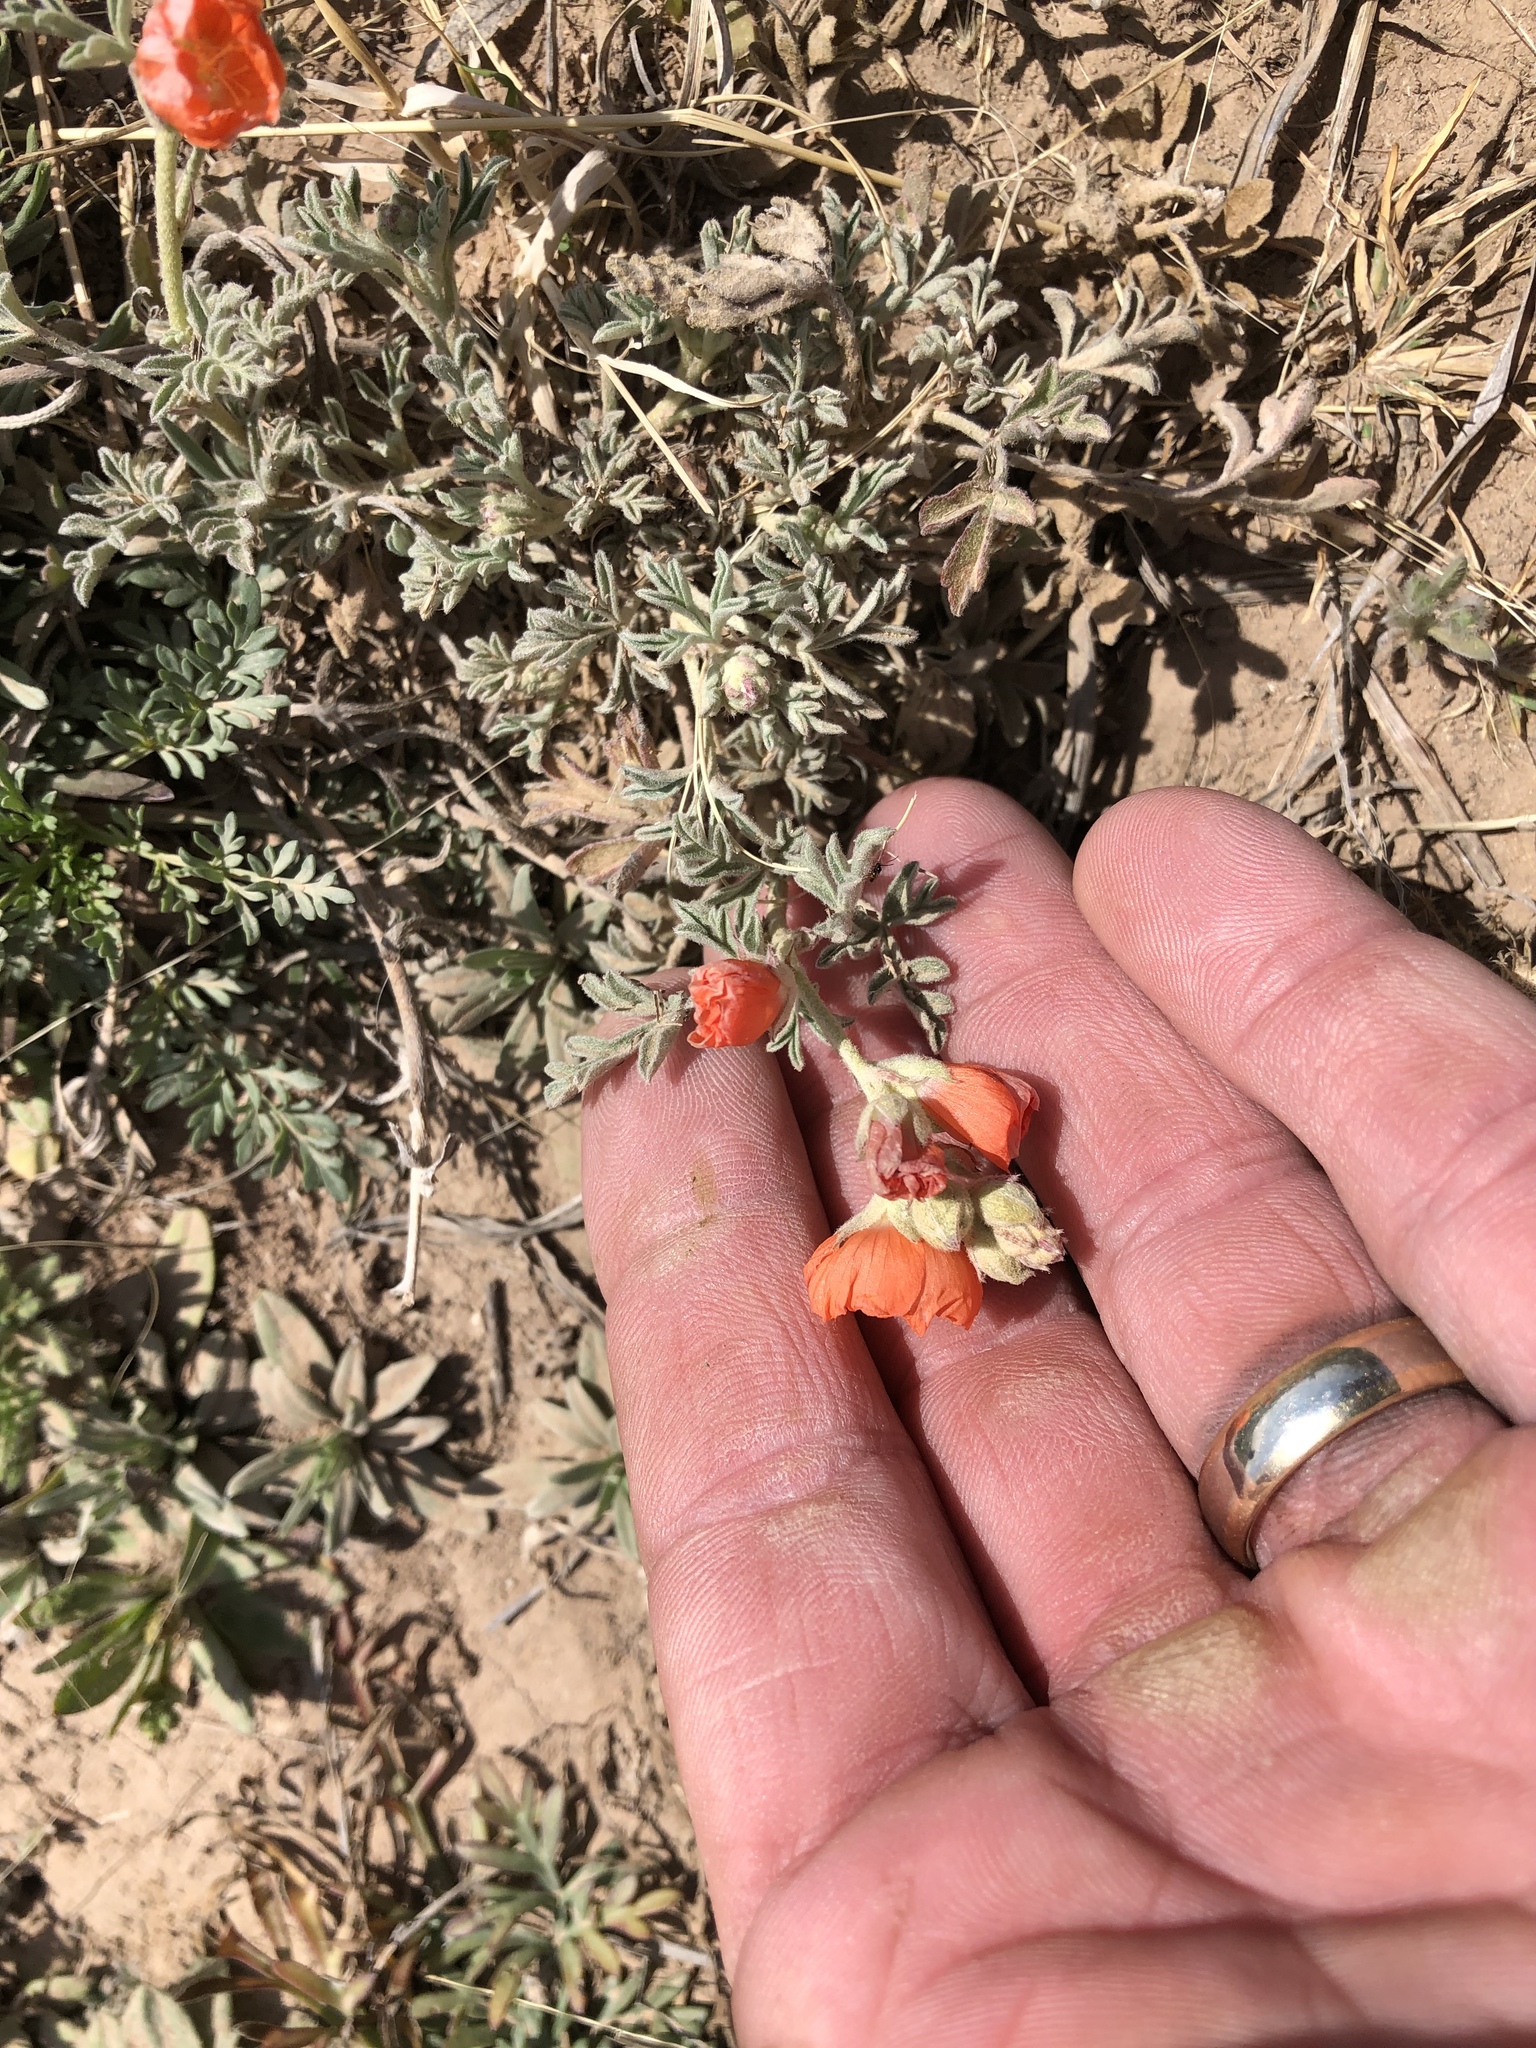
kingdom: Plantae
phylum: Tracheophyta
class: Magnoliopsida
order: Malvales
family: Malvaceae
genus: Sphaeralcea
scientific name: Sphaeralcea coccinea
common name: Moss-rose
